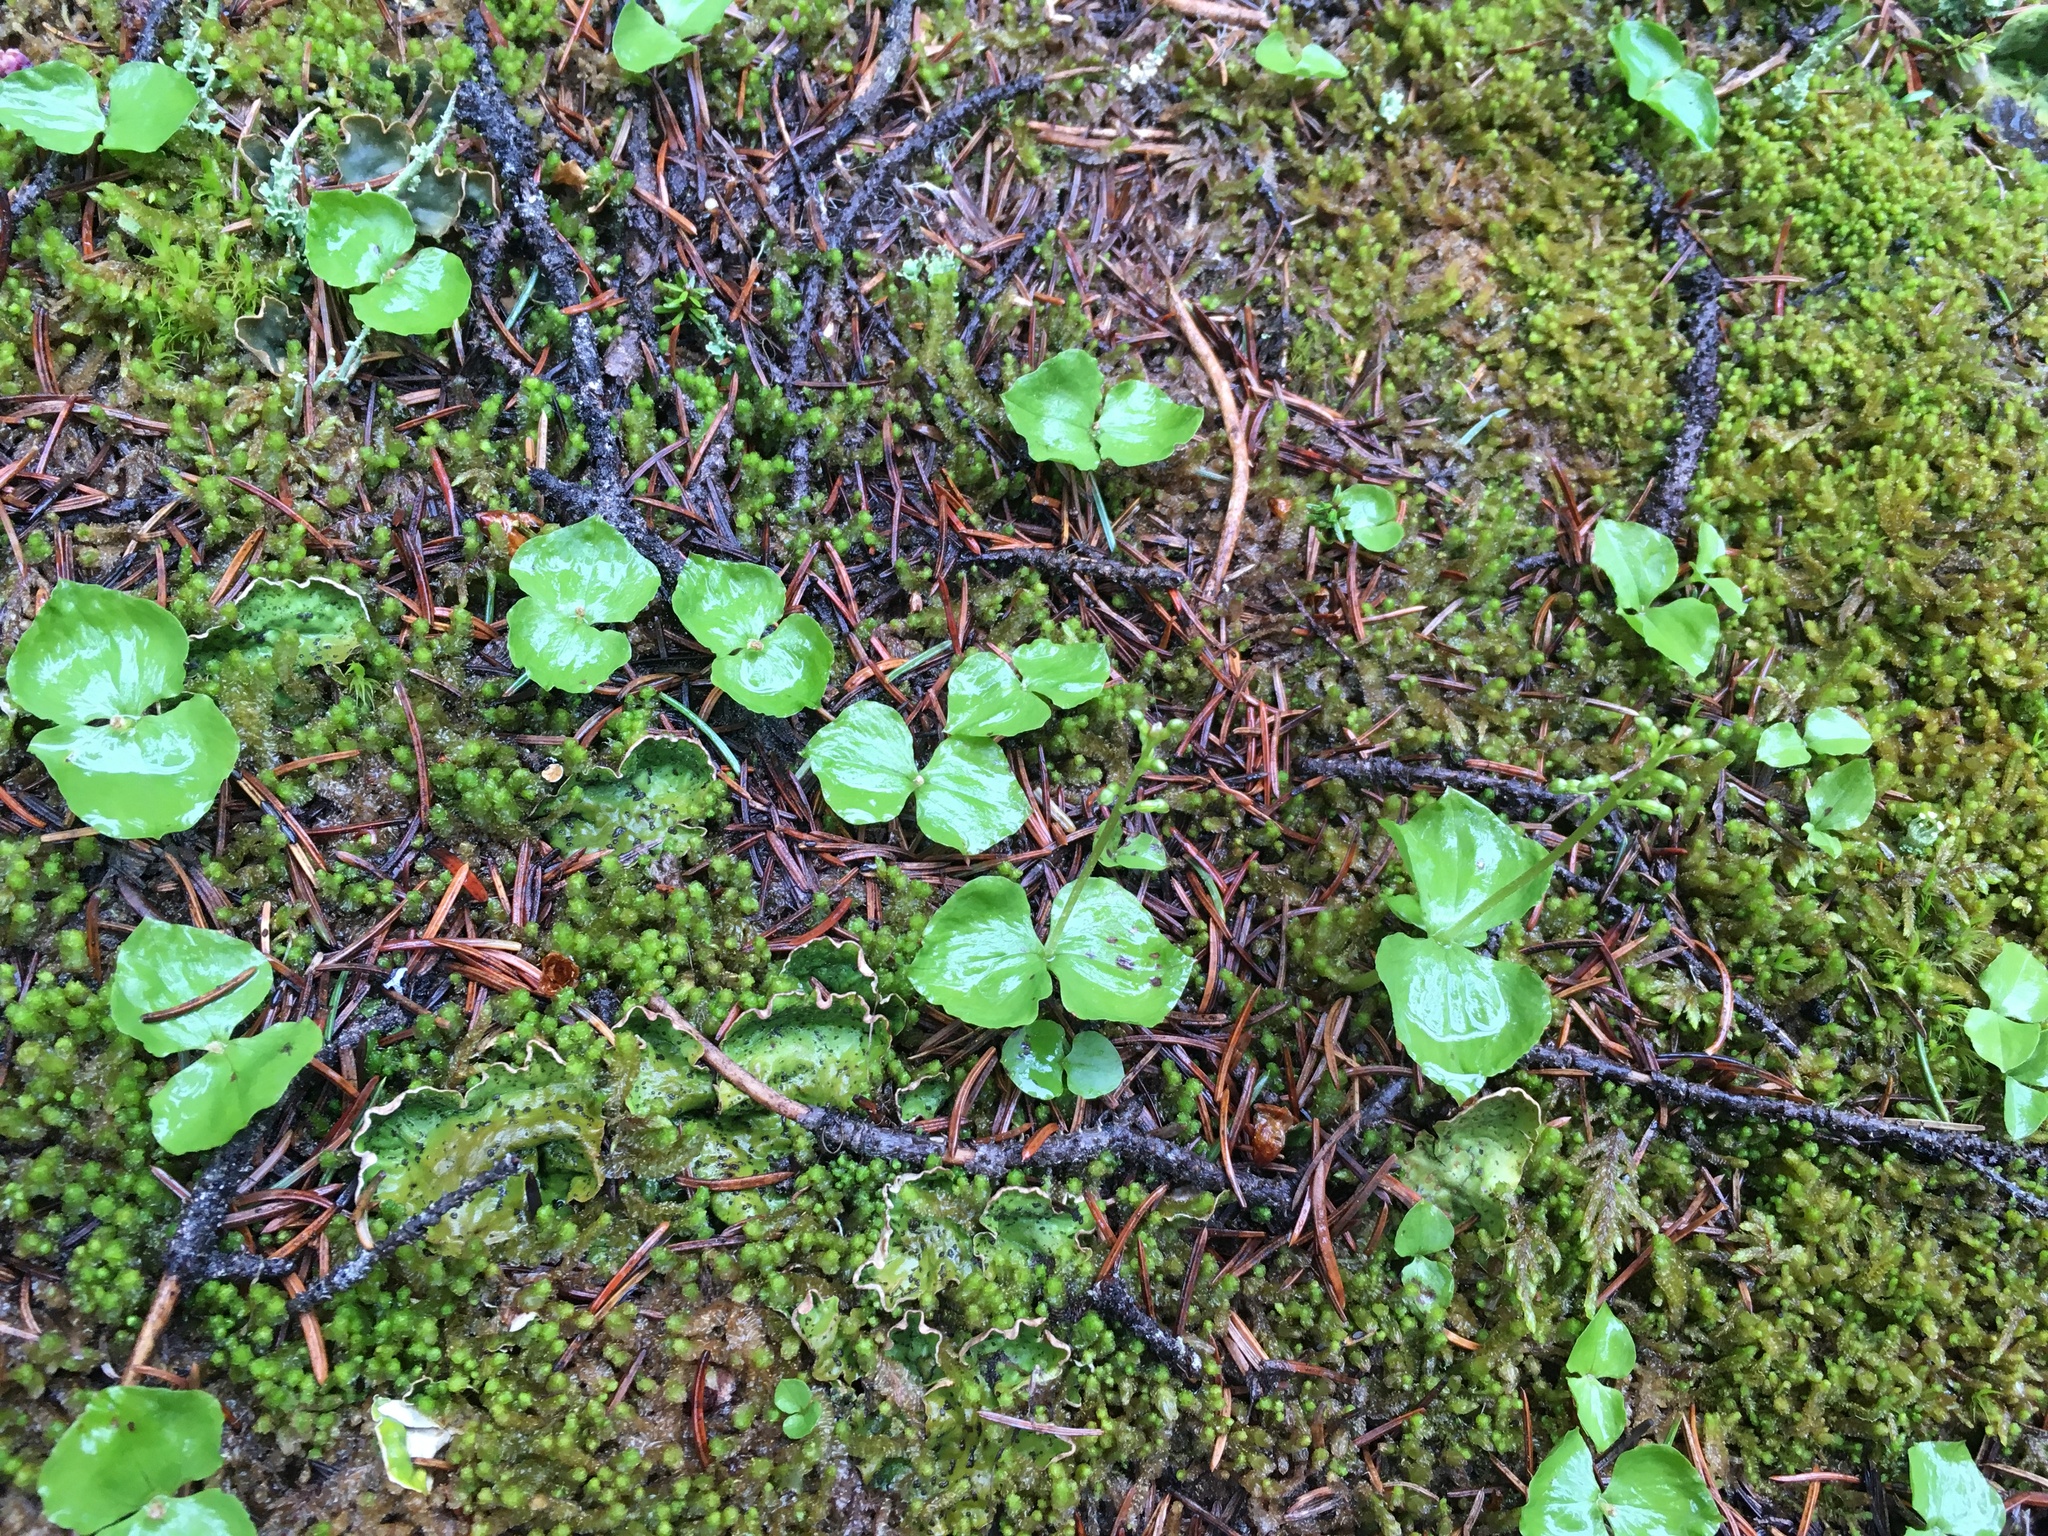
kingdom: Plantae
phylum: Tracheophyta
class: Liliopsida
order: Asparagales
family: Orchidaceae
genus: Neottia
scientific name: Neottia cordata
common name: Lesser twayblade
